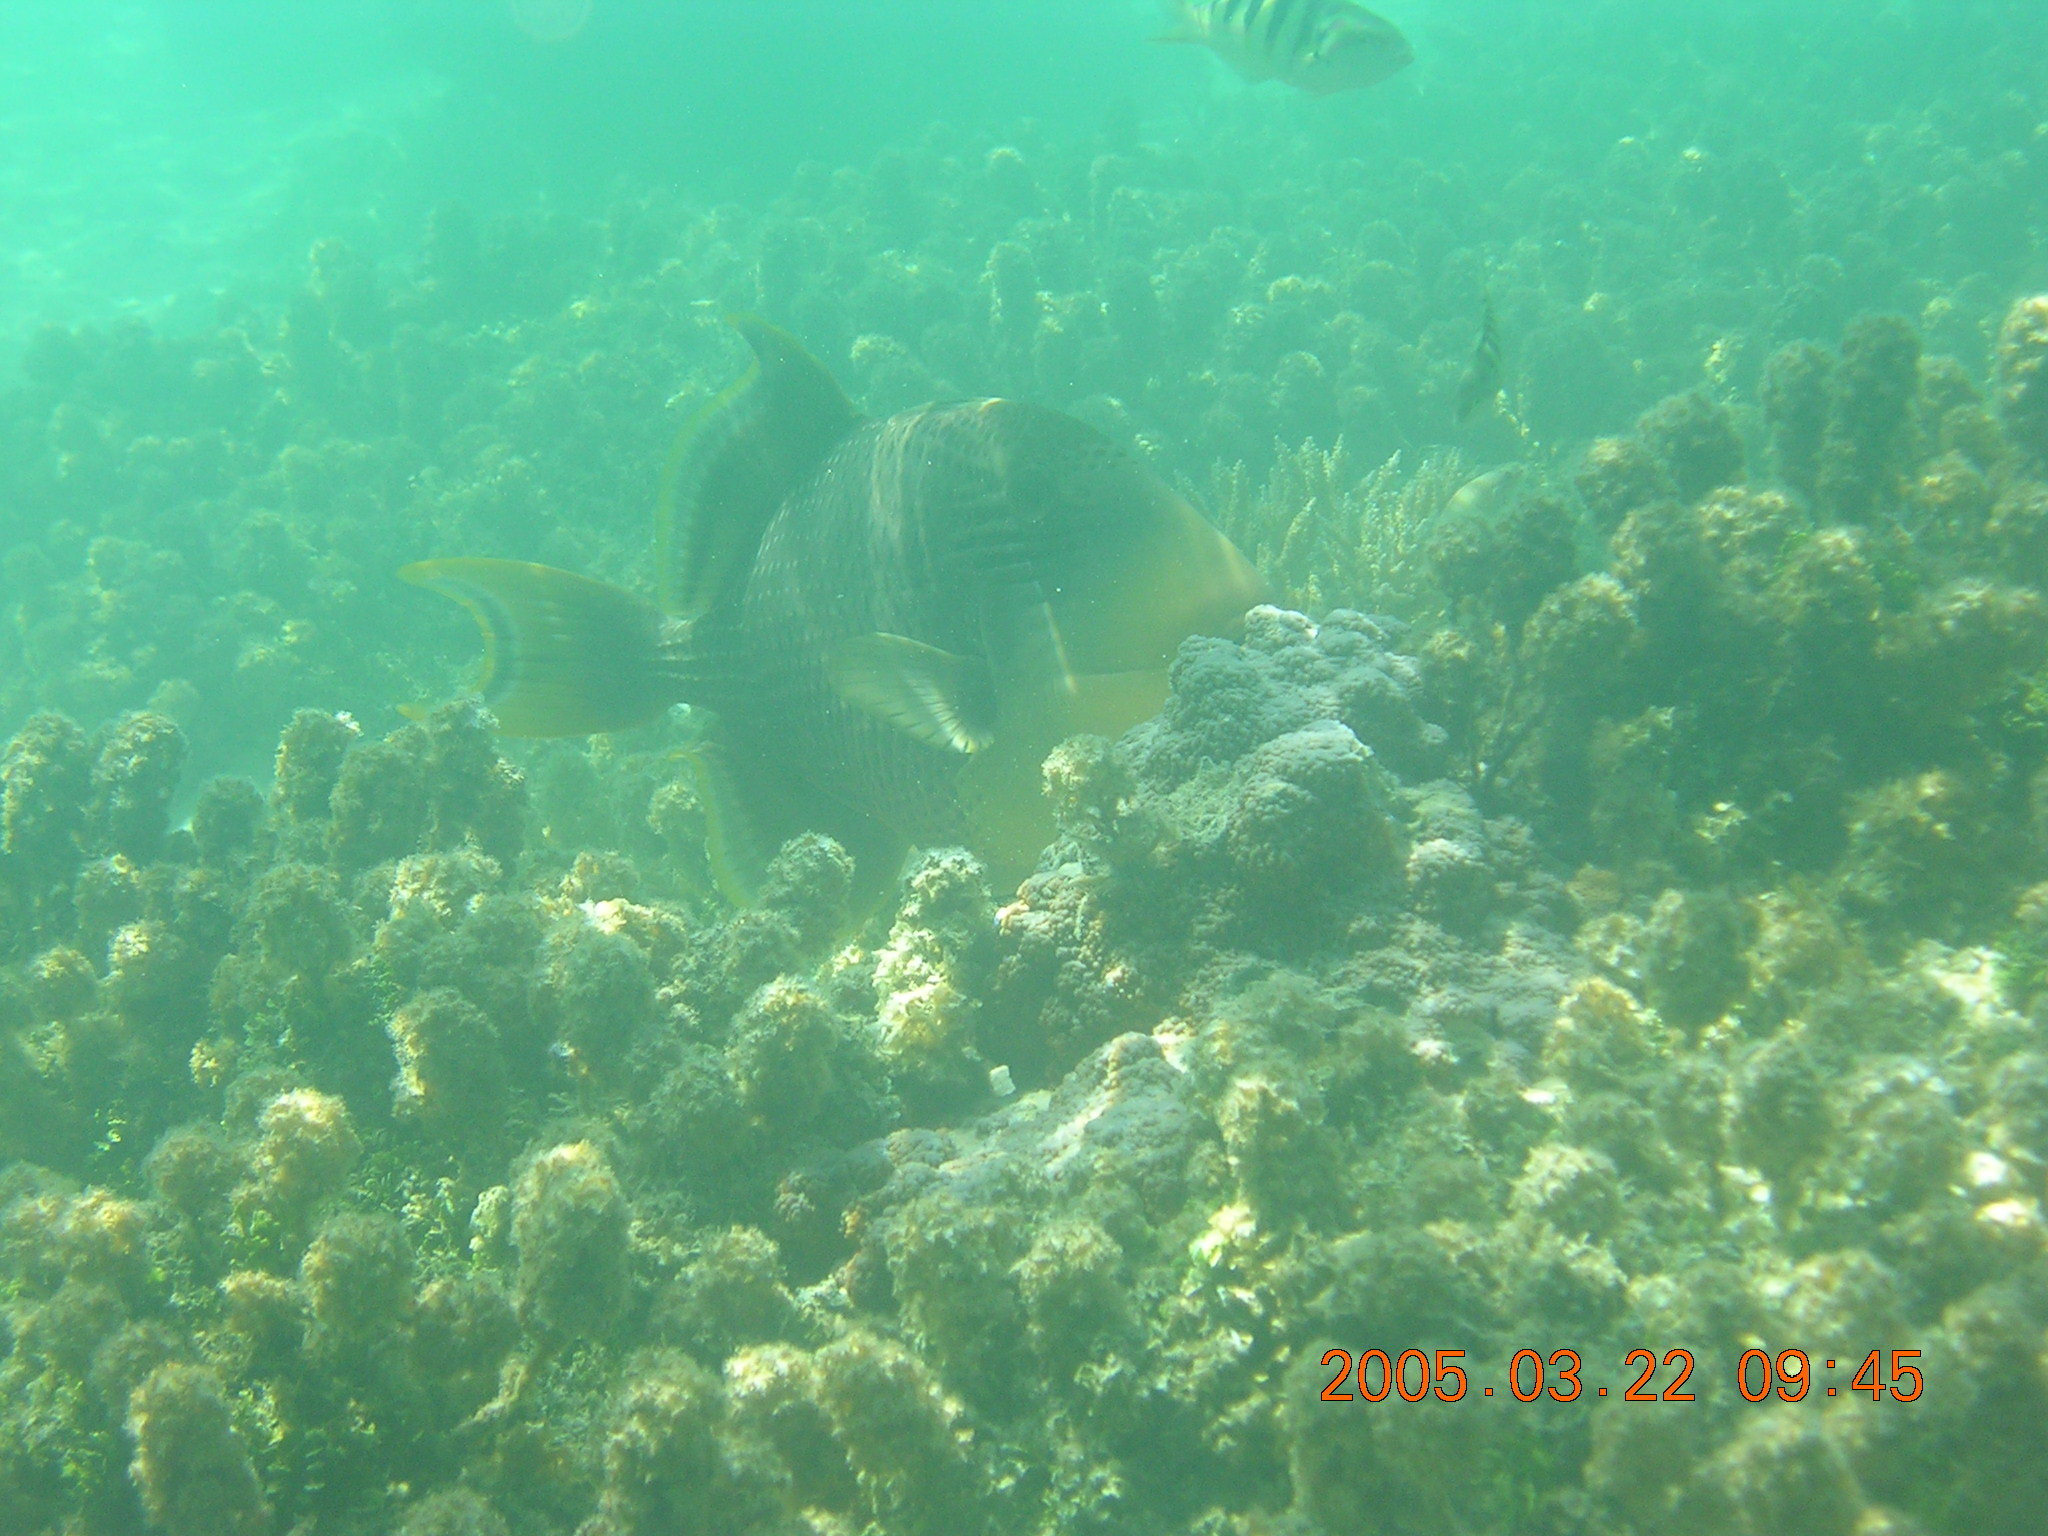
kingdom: Animalia
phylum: Chordata
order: Tetraodontiformes
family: Balistidae
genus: Pseudobalistes
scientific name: Pseudobalistes flavimarginatus
